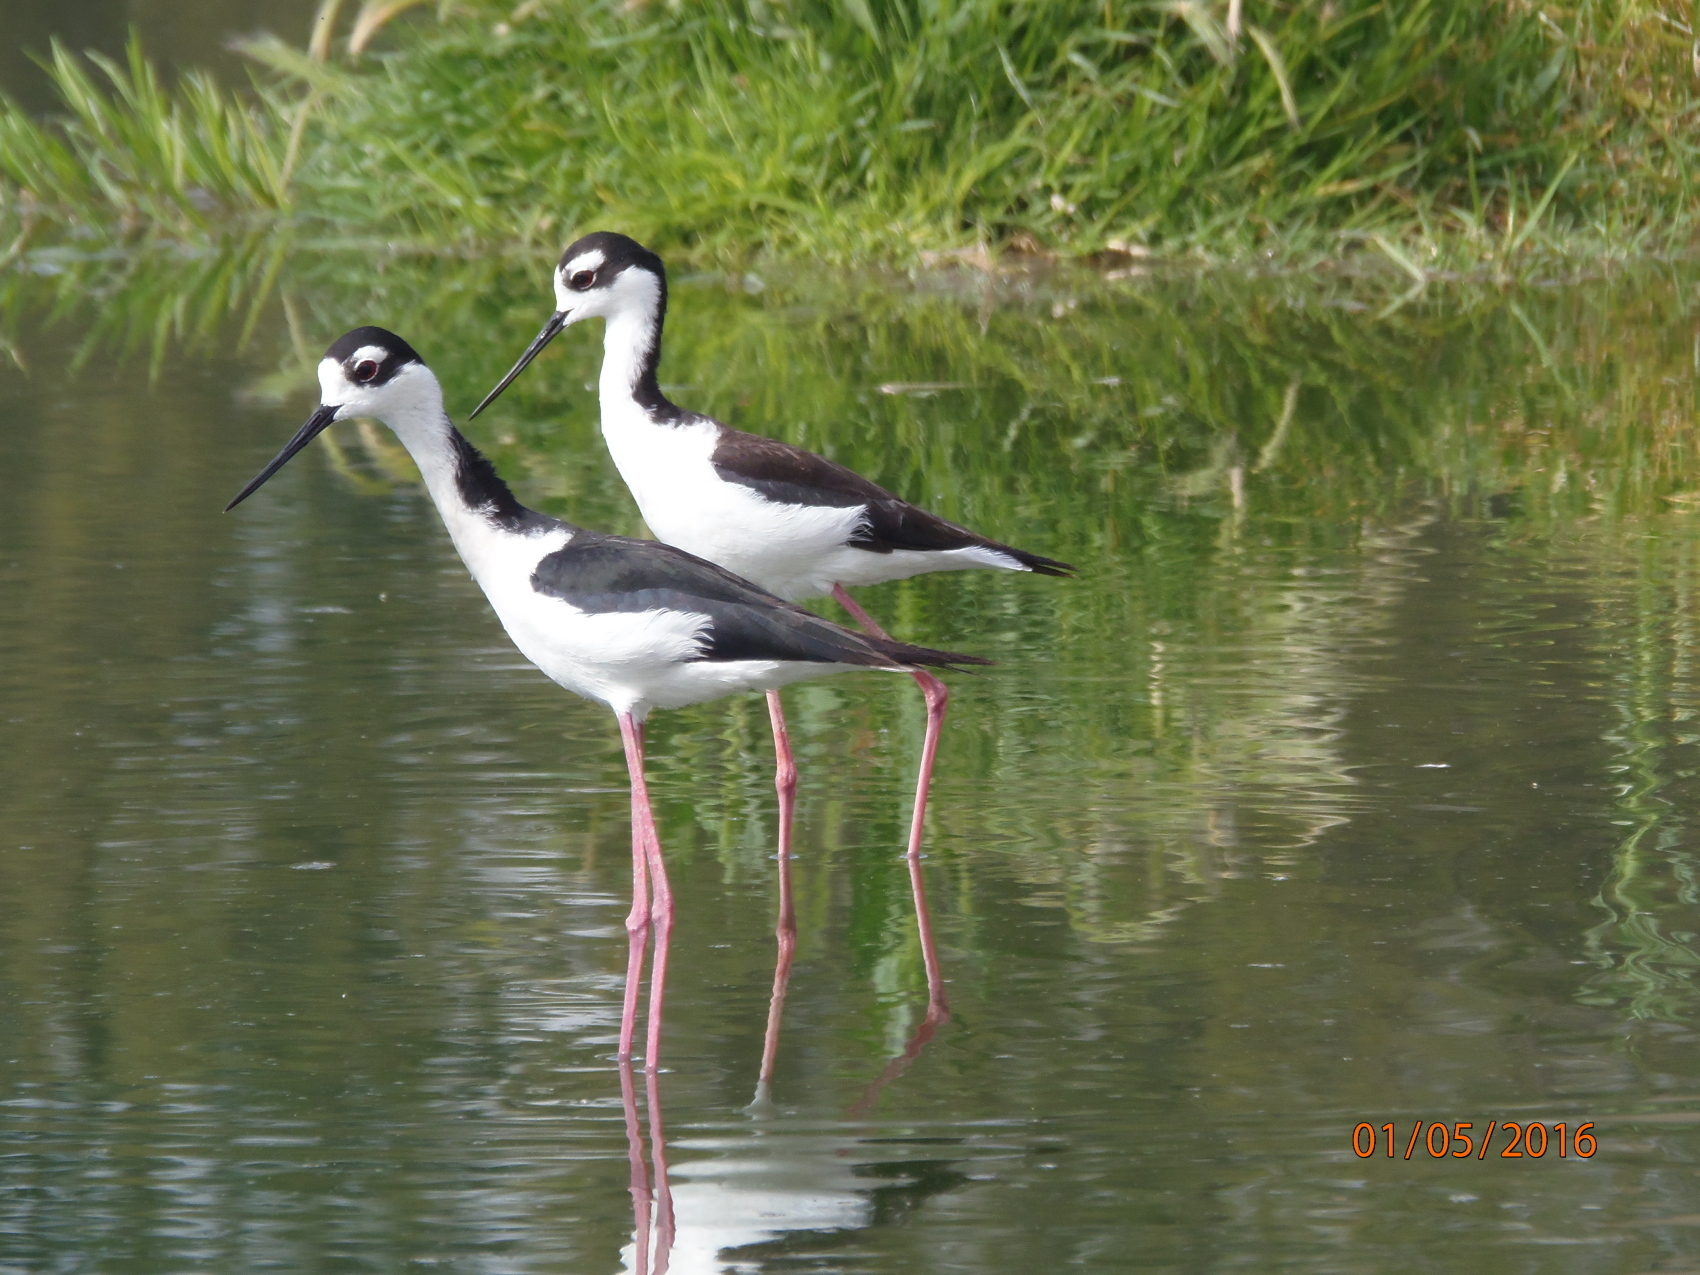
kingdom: Animalia
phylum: Chordata
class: Aves
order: Charadriiformes
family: Recurvirostridae
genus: Himantopus
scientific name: Himantopus mexicanus
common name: Black-necked stilt
